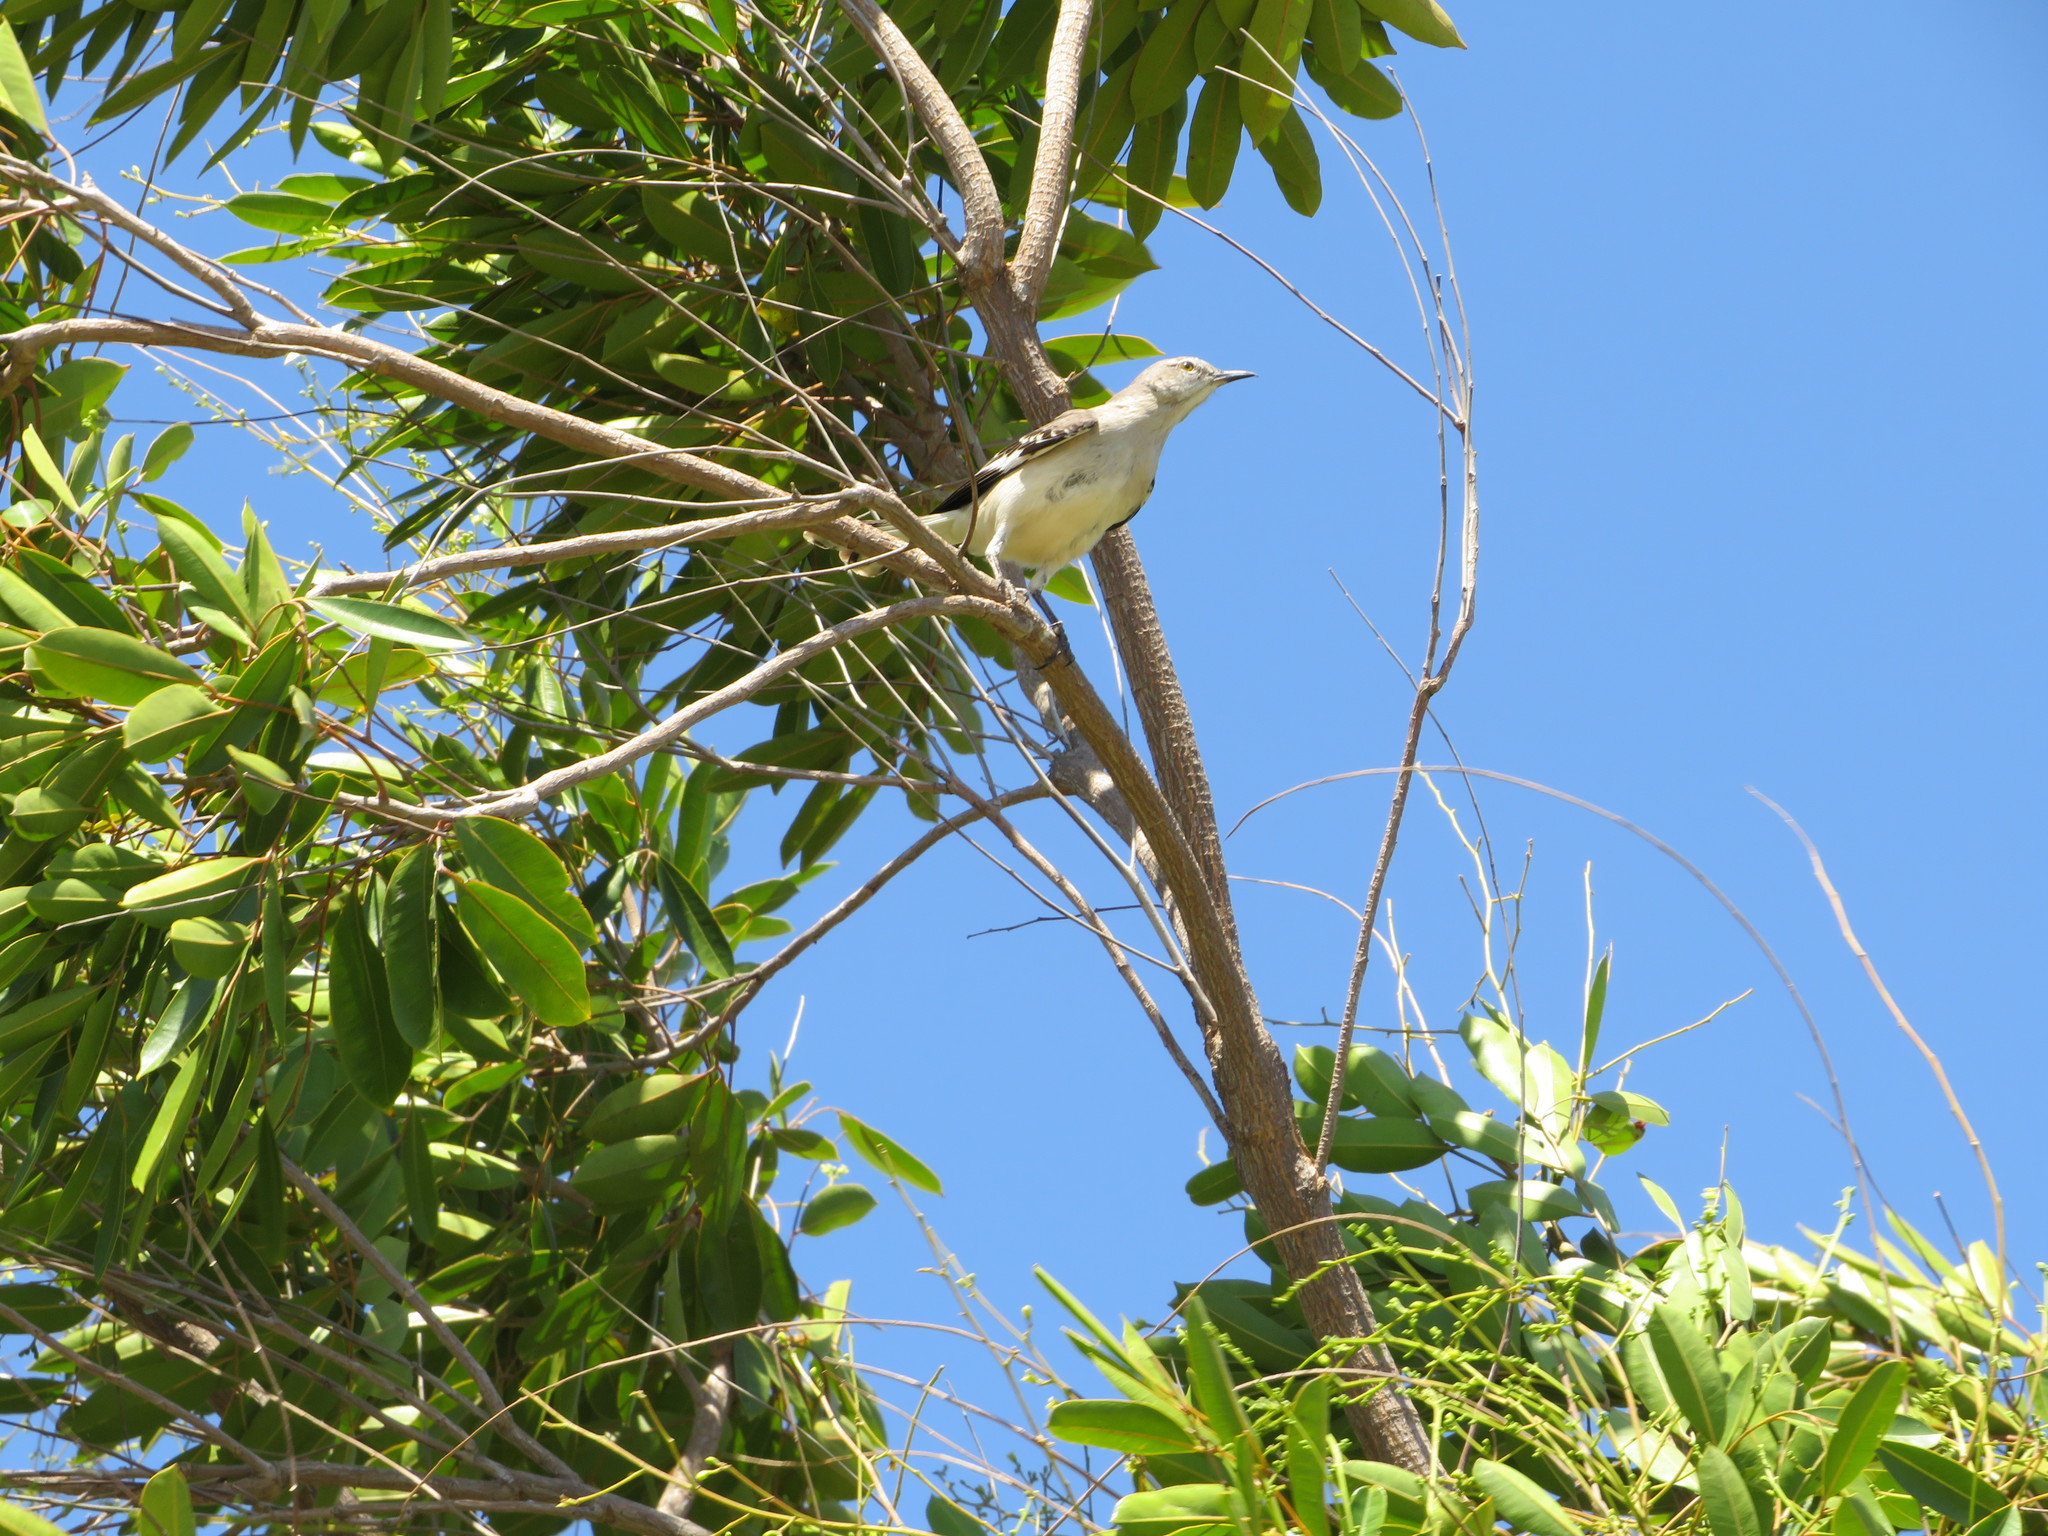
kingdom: Animalia
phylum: Chordata
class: Aves
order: Passeriformes
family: Mimidae
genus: Mimus
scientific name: Mimus polyglottos
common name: Northern mockingbird
